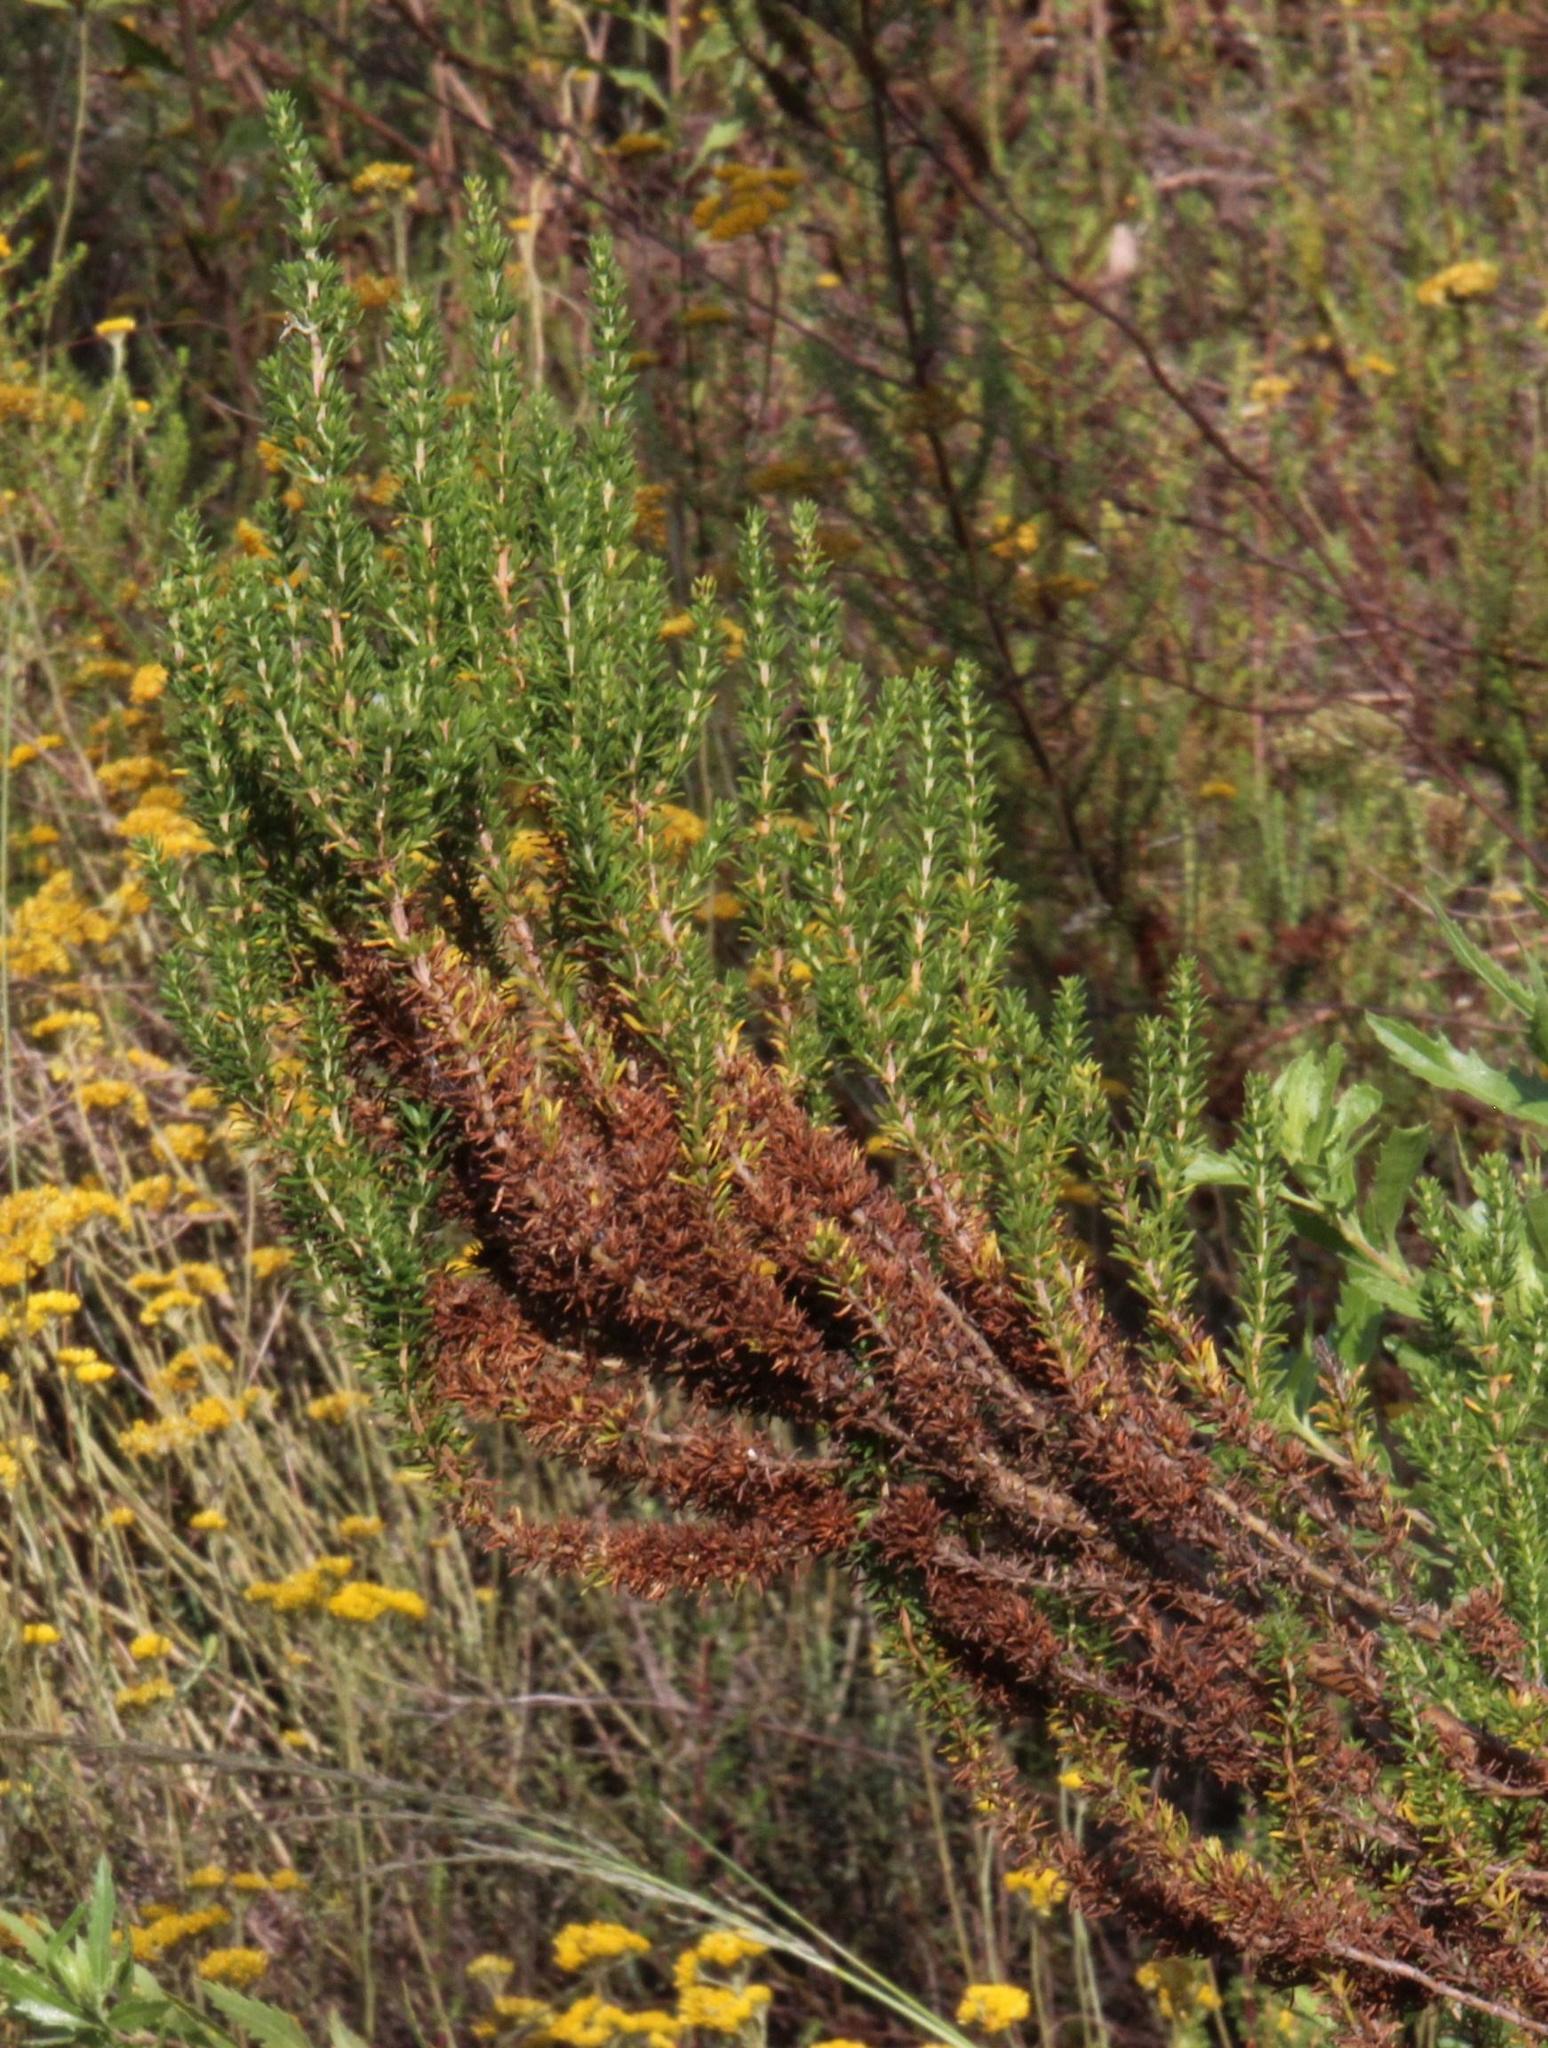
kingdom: Plantae
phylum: Tracheophyta
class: Magnoliopsida
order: Gentianales
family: Rubiaceae
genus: Anthospermum
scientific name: Anthospermum aethiopicum
